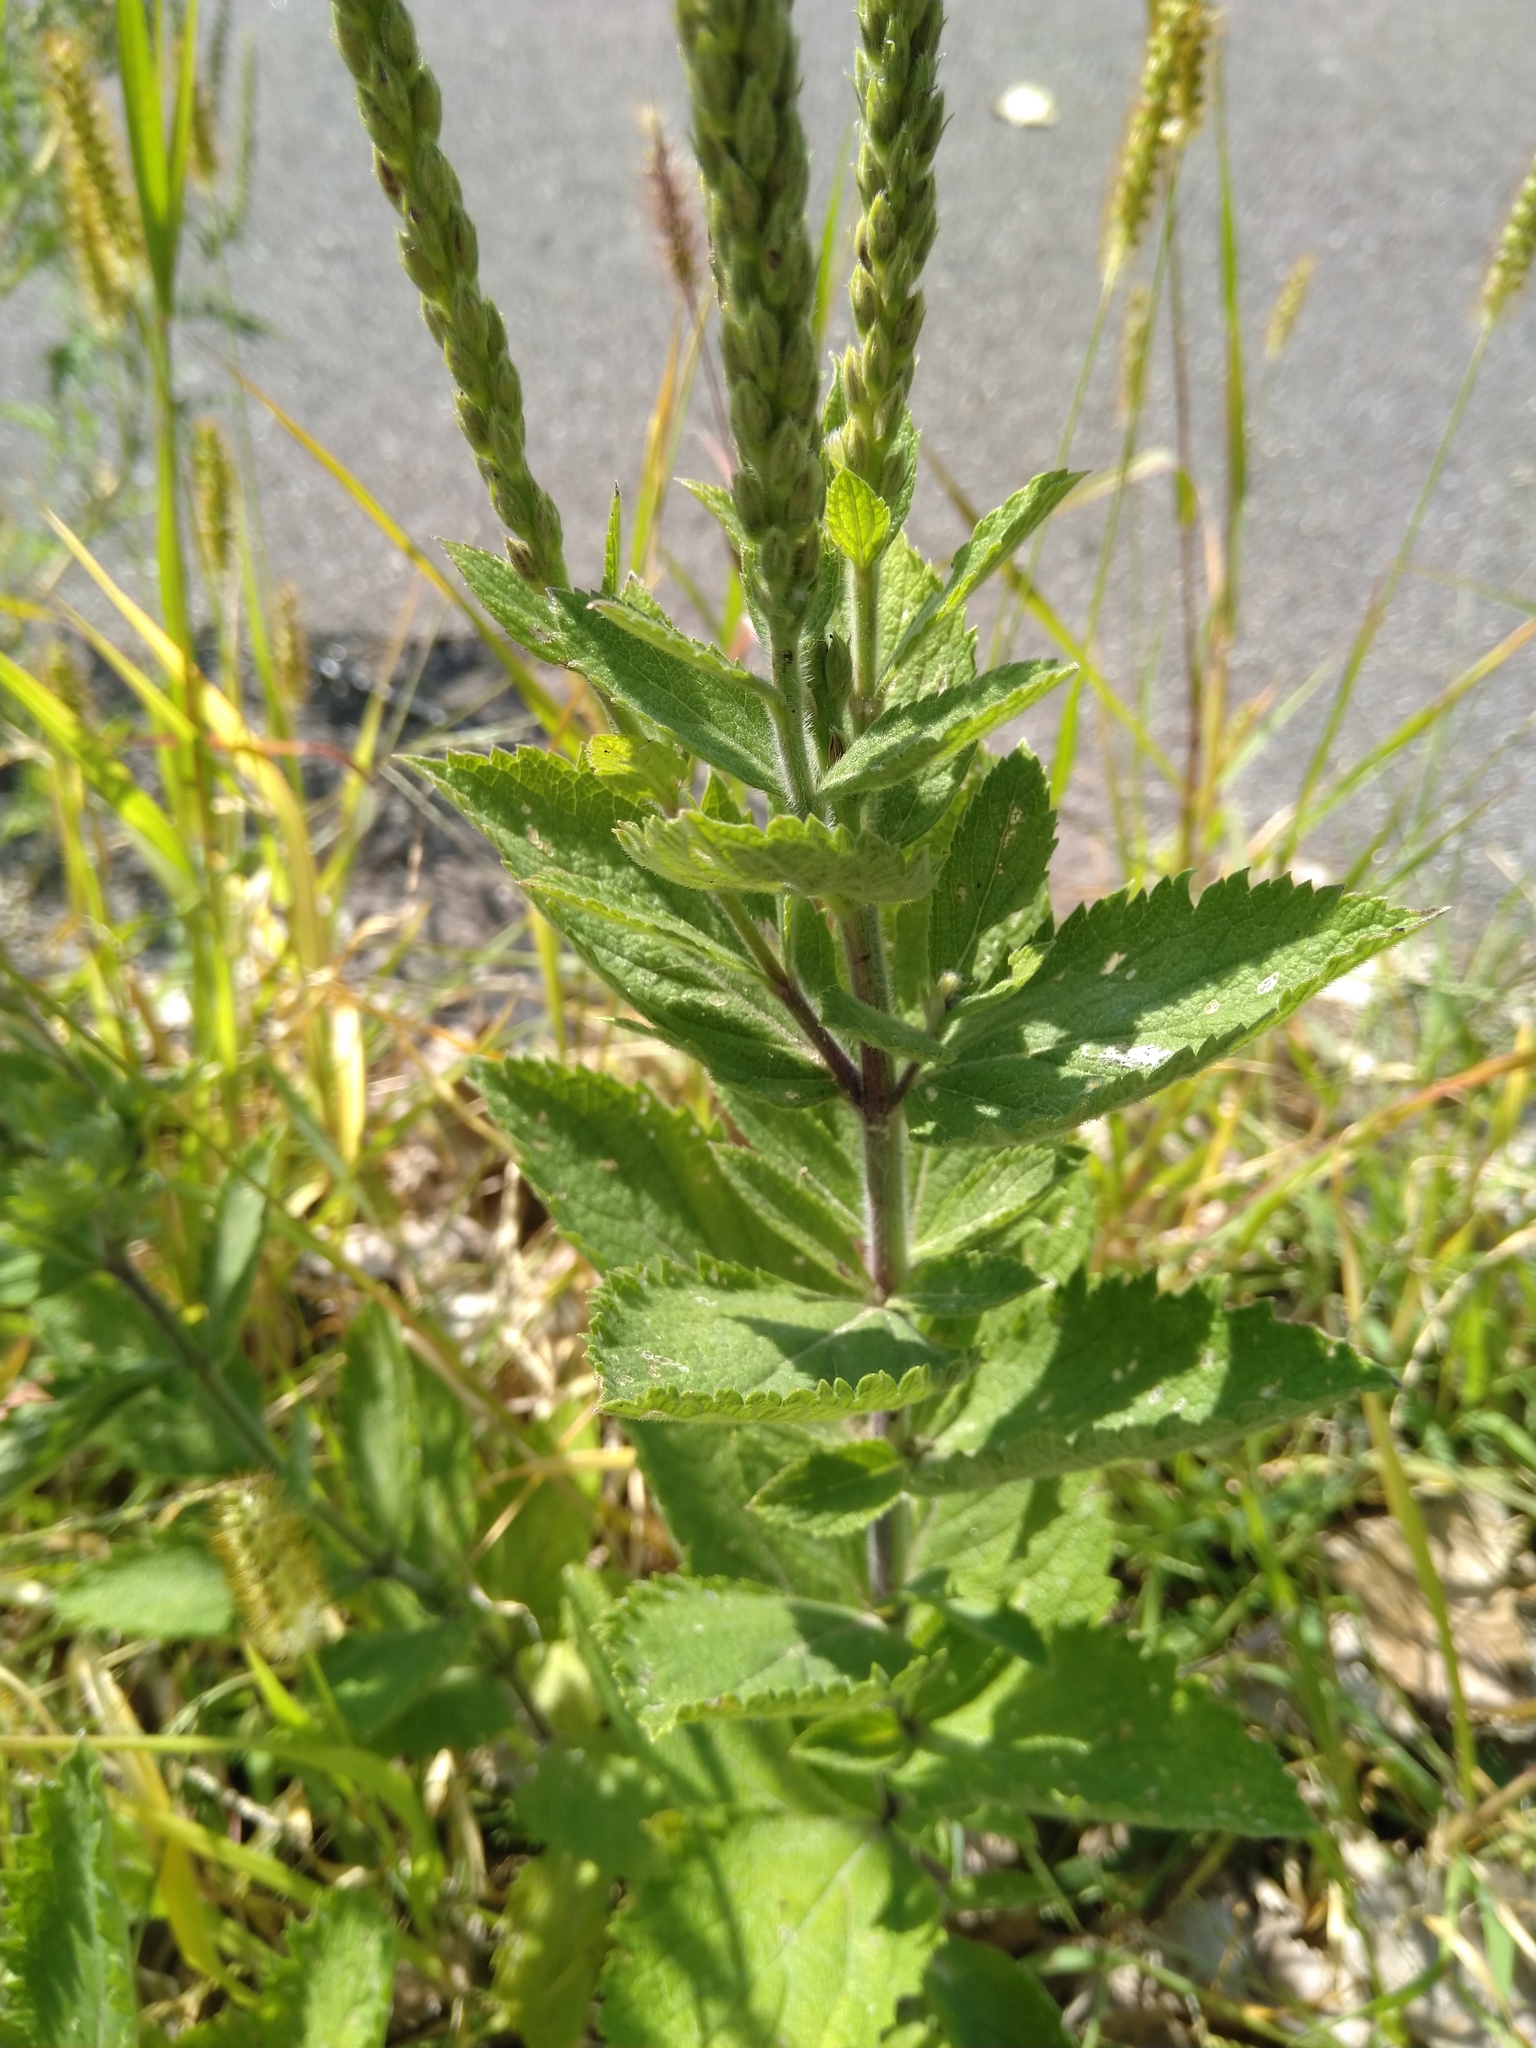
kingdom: Plantae
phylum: Tracheophyta
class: Magnoliopsida
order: Lamiales
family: Verbenaceae
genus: Verbena
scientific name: Verbena stricta
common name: Hoary vervain
